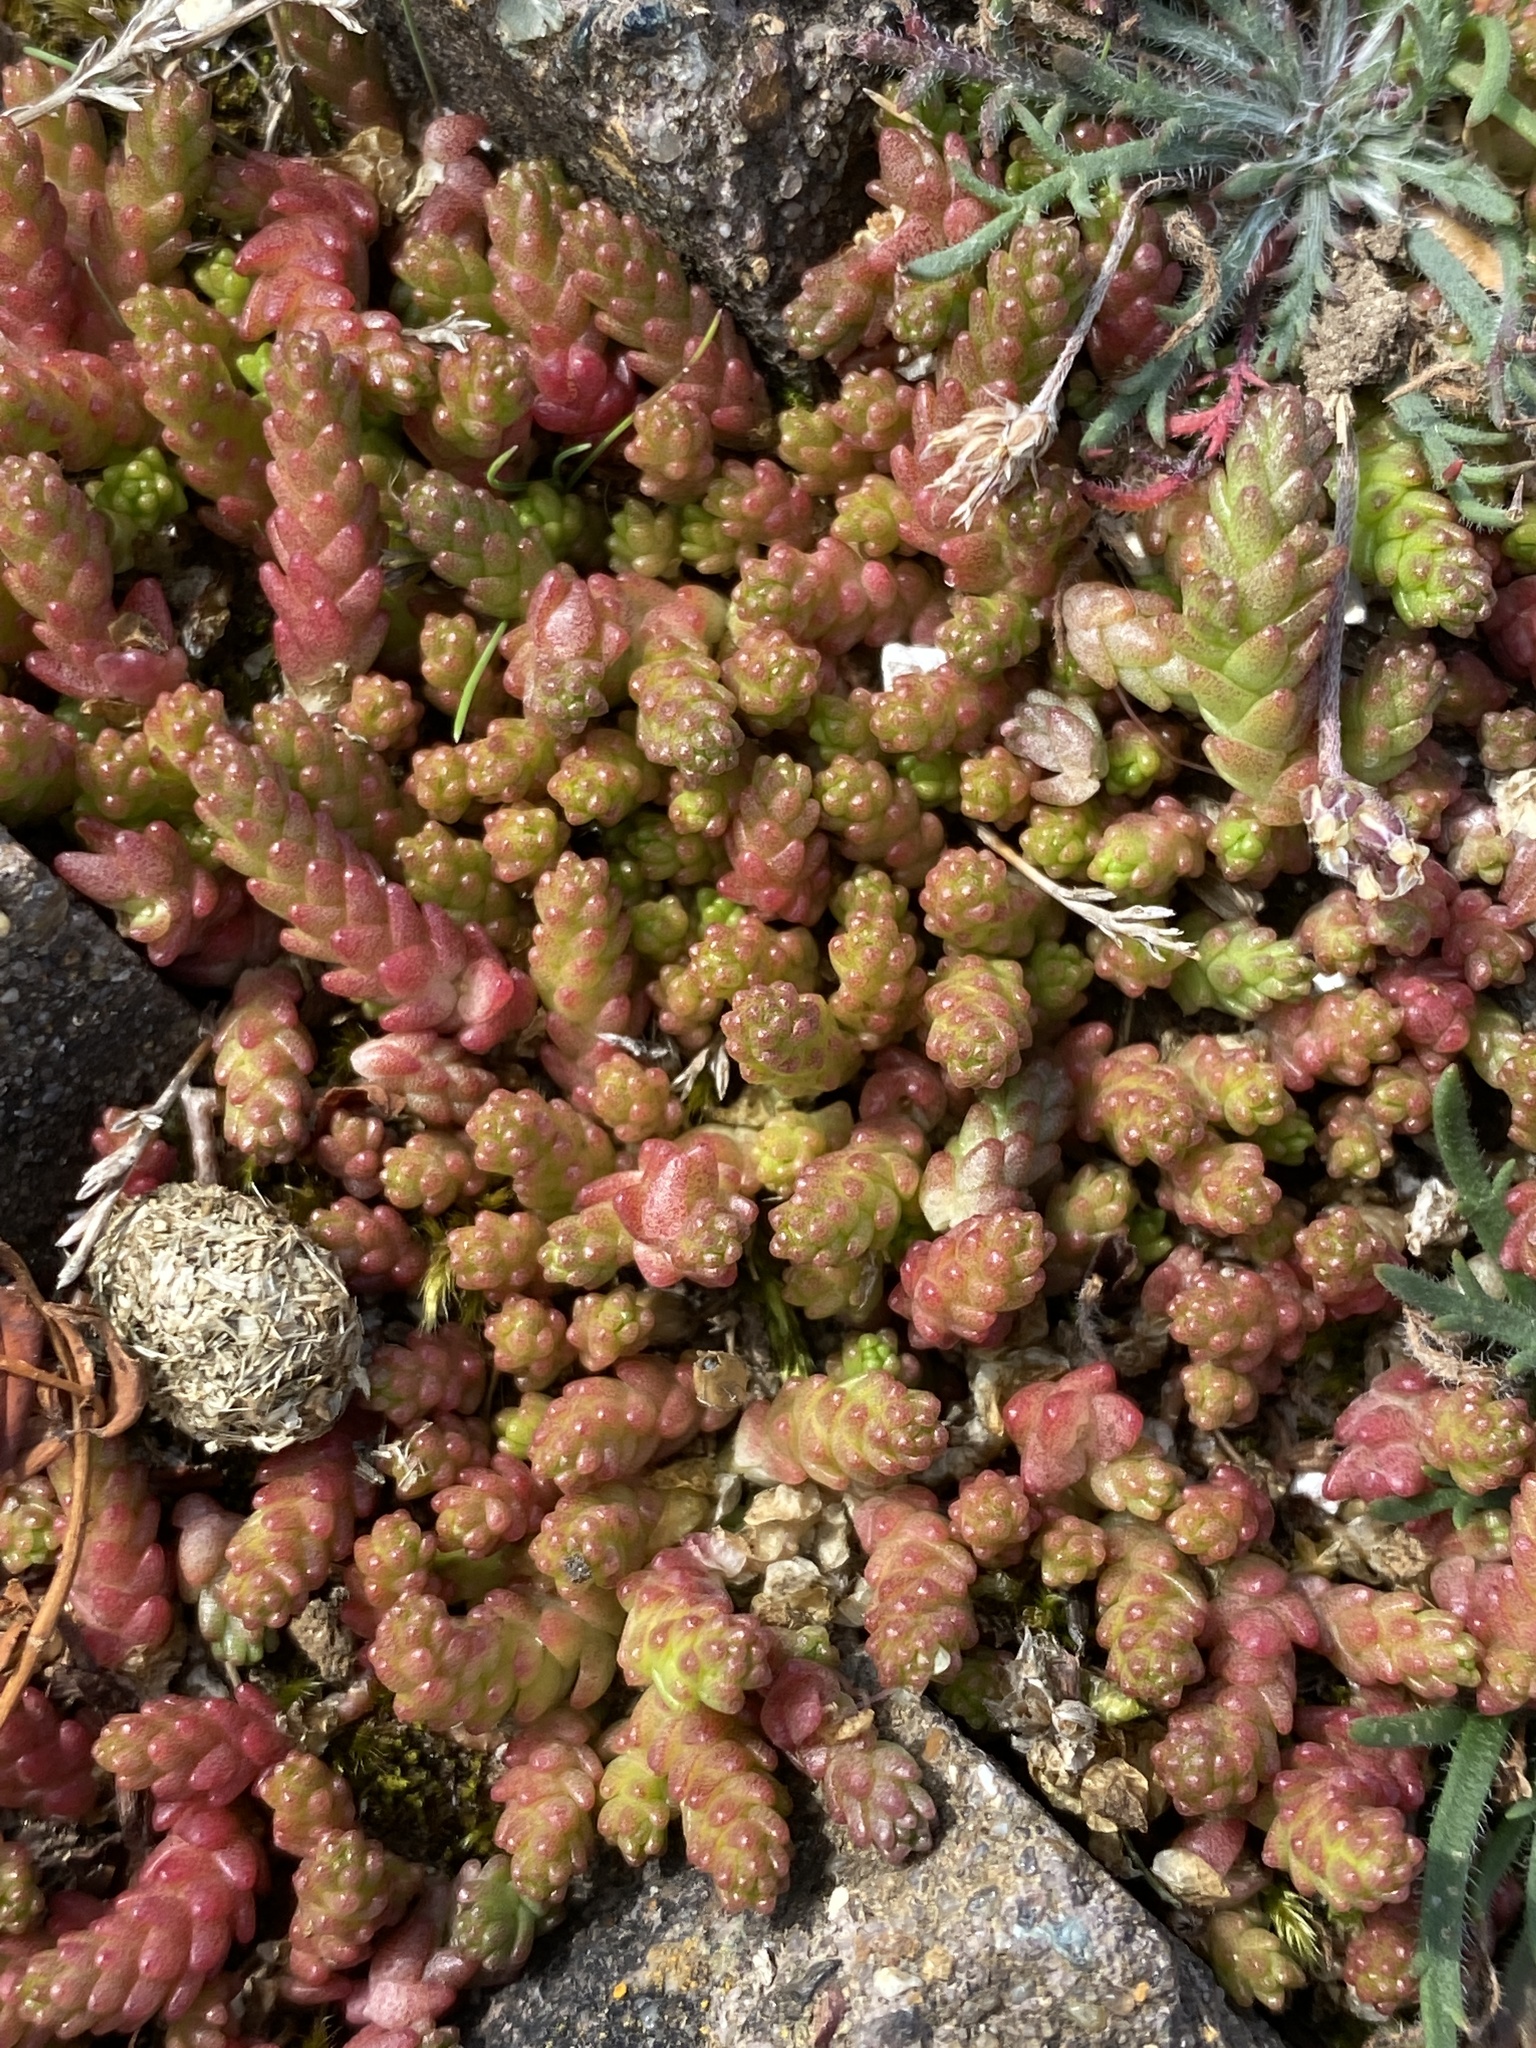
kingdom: Plantae
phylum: Tracheophyta
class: Magnoliopsida
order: Saxifragales
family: Crassulaceae
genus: Sedum
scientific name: Sedum acre
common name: Biting stonecrop
